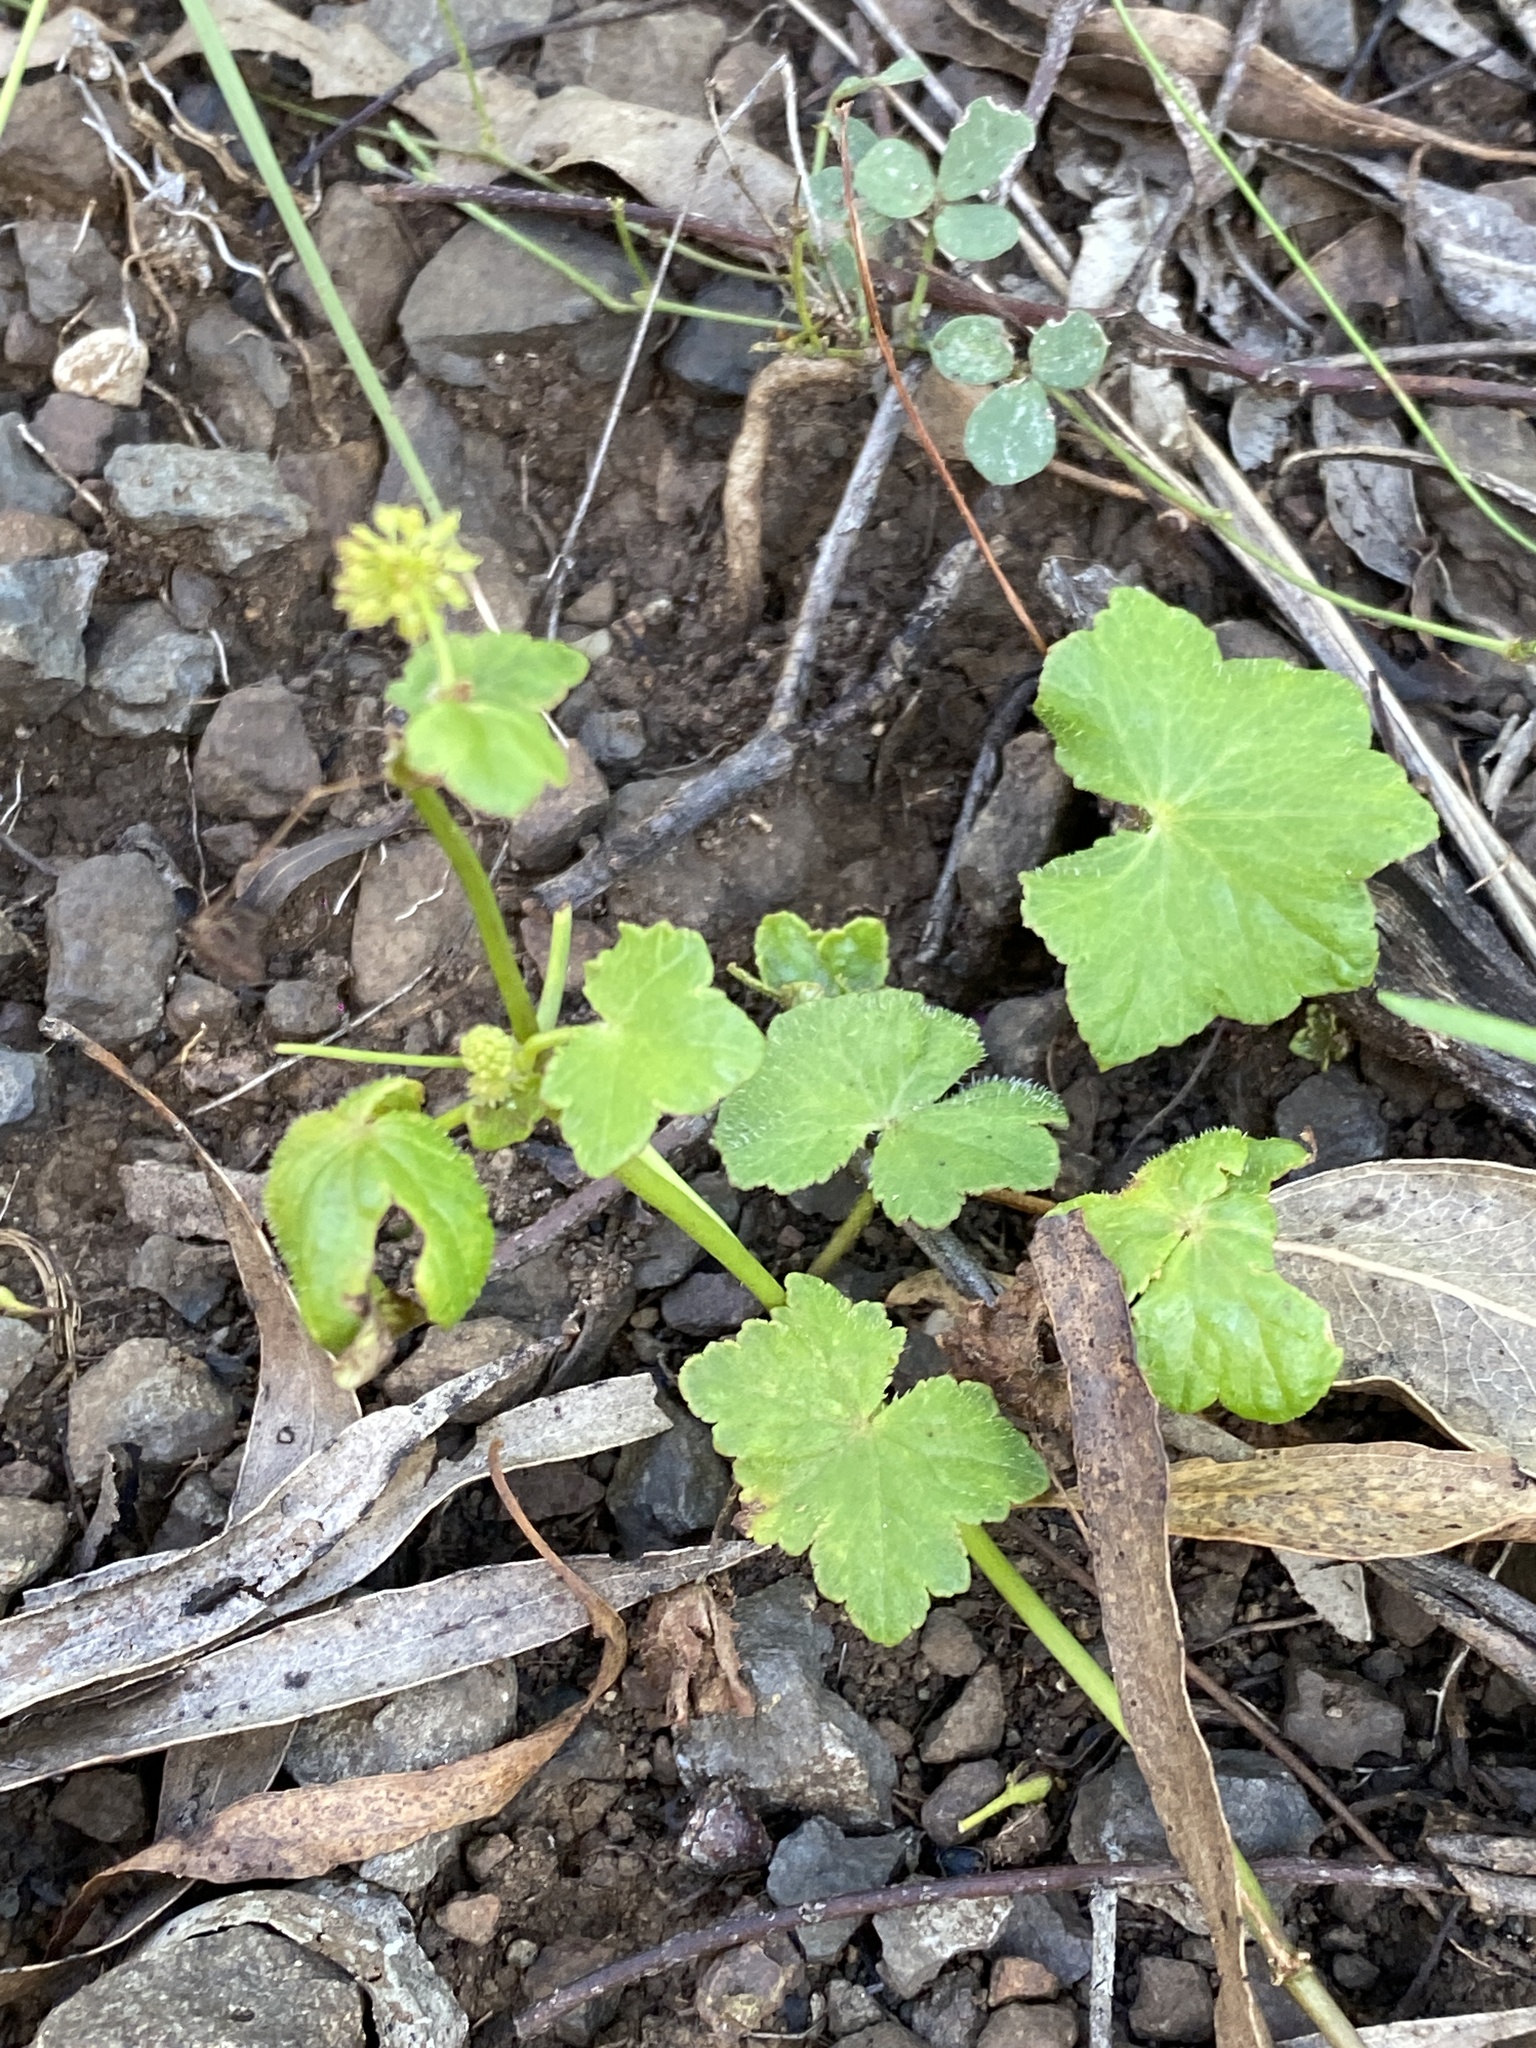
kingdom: Plantae
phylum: Tracheophyta
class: Magnoliopsida
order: Apiales
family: Araliaceae
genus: Hydrocotyle
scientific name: Hydrocotyle laxiflora
